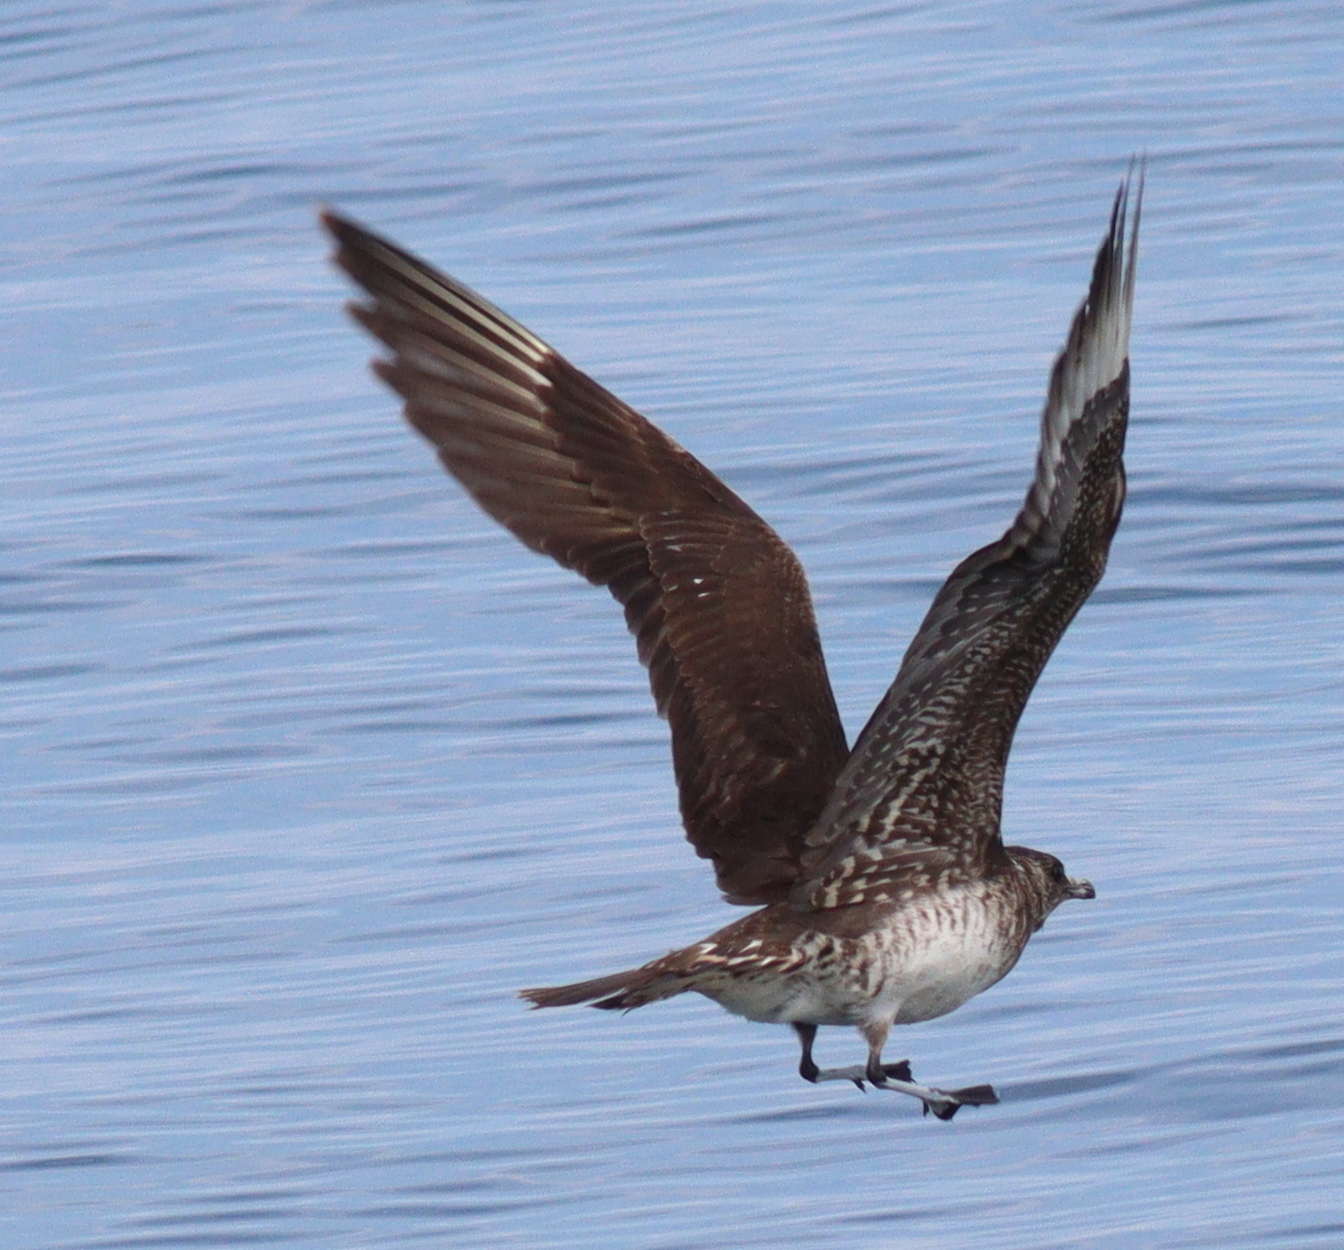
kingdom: Animalia
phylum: Chordata
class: Aves
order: Charadriiformes
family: Stercorariidae
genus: Stercorarius
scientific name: Stercorarius parasiticus
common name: Parasitic jaeger
